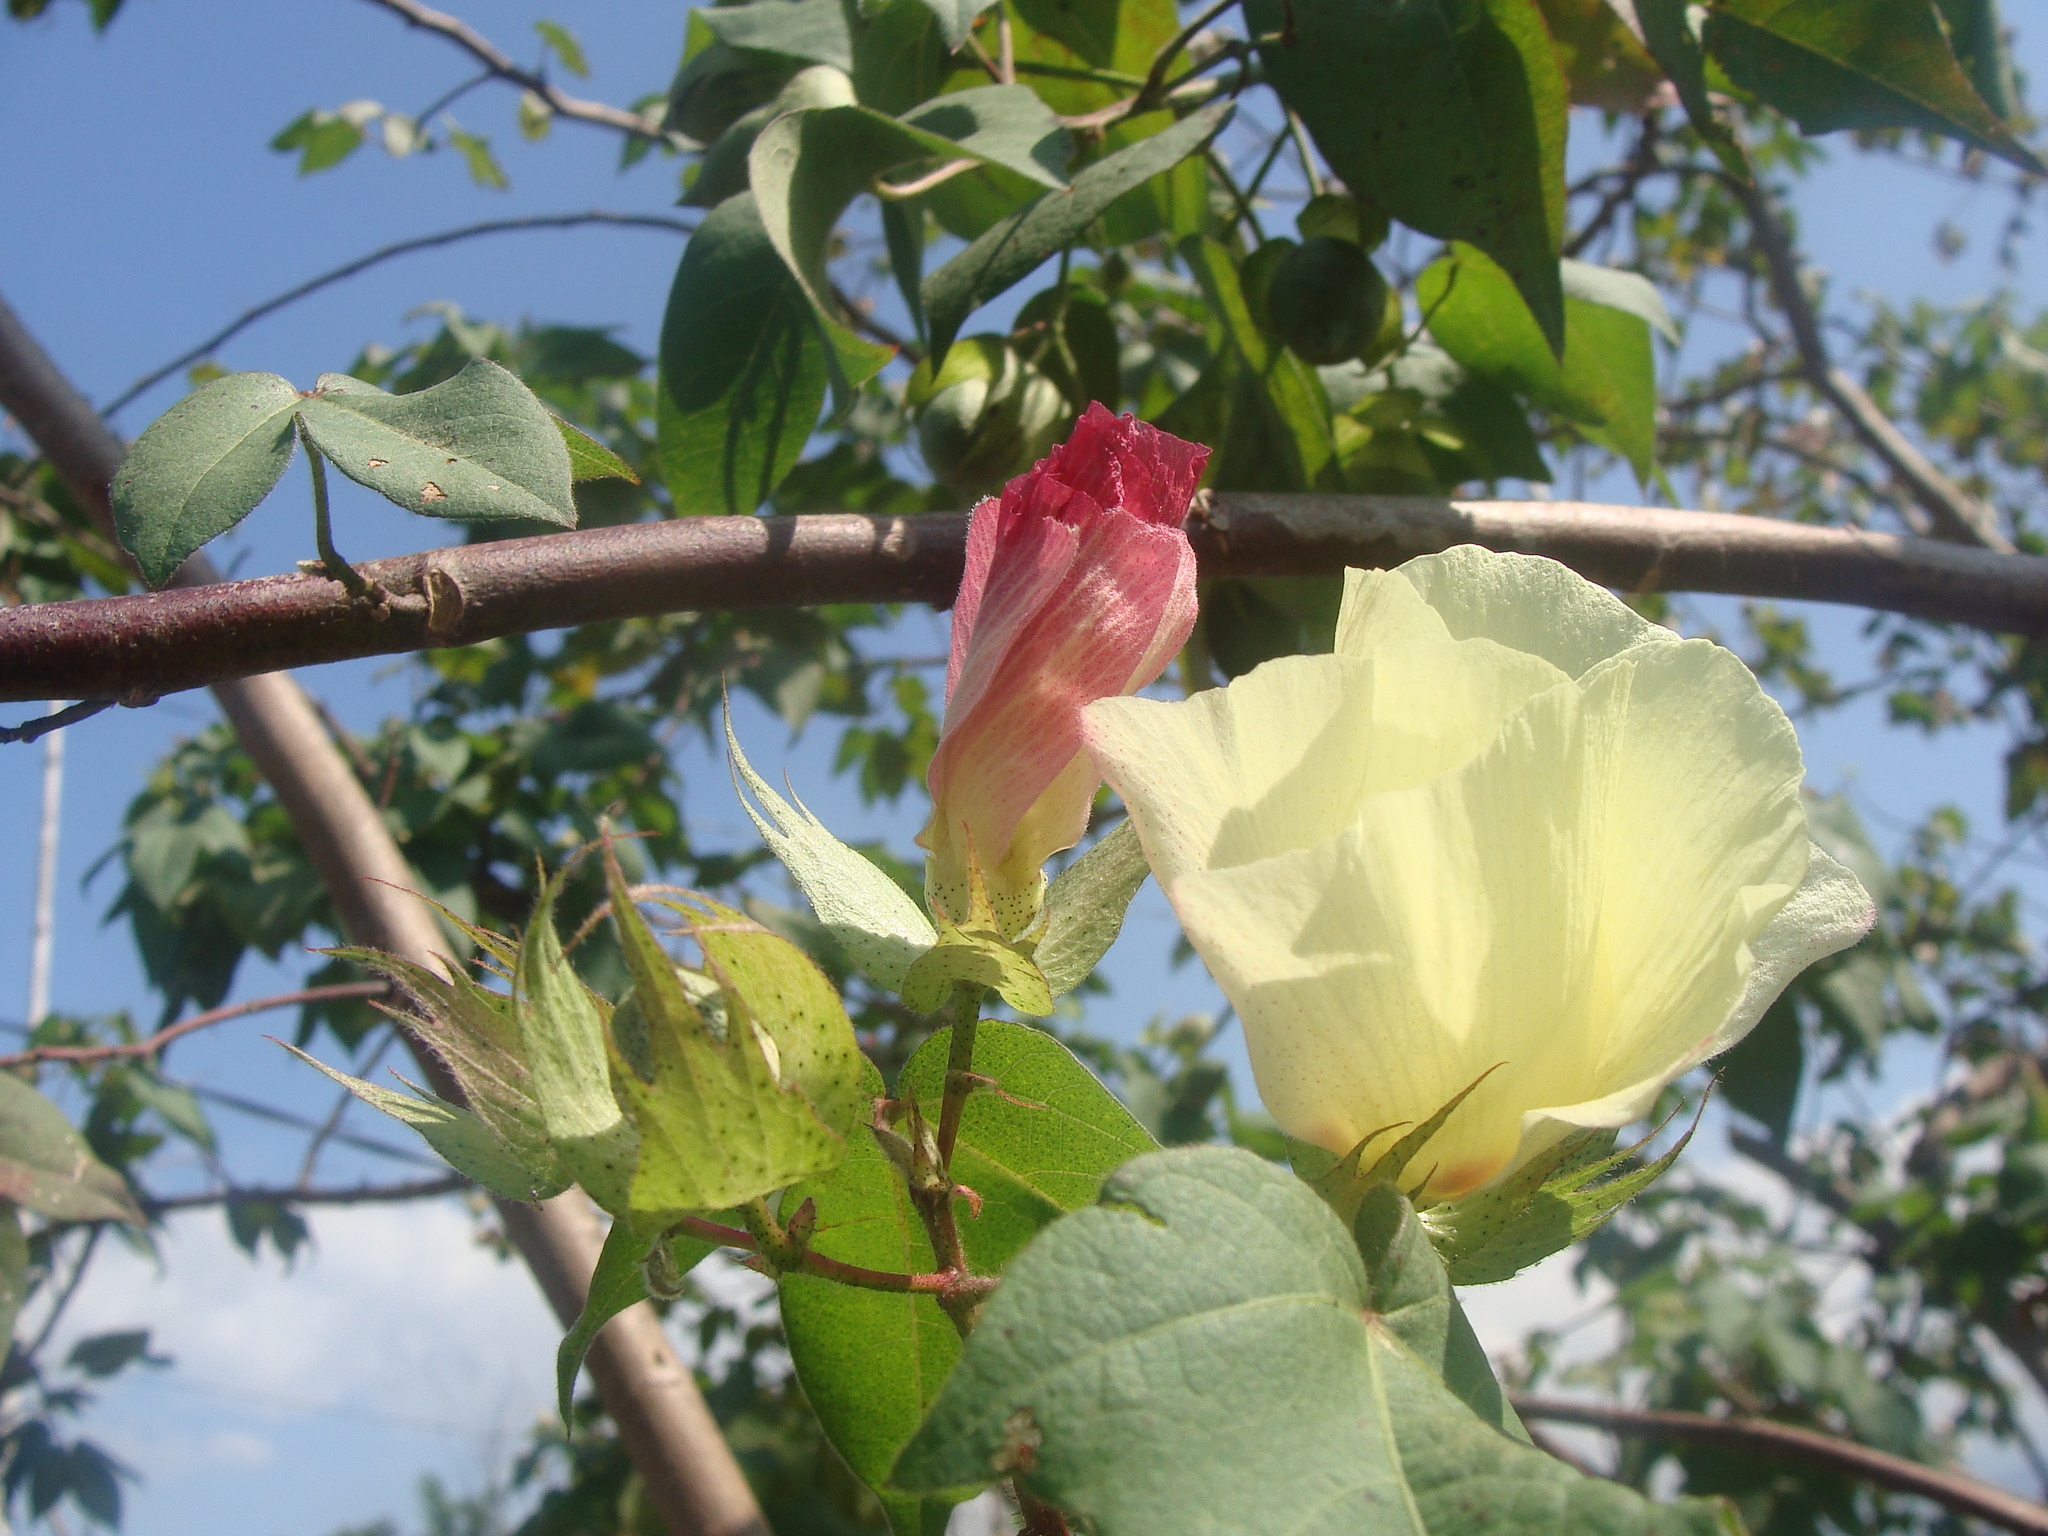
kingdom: Plantae
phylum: Tracheophyta
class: Magnoliopsida
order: Malvales
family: Malvaceae
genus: Gossypium
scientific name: Gossypium hirsutum
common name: Cotton
